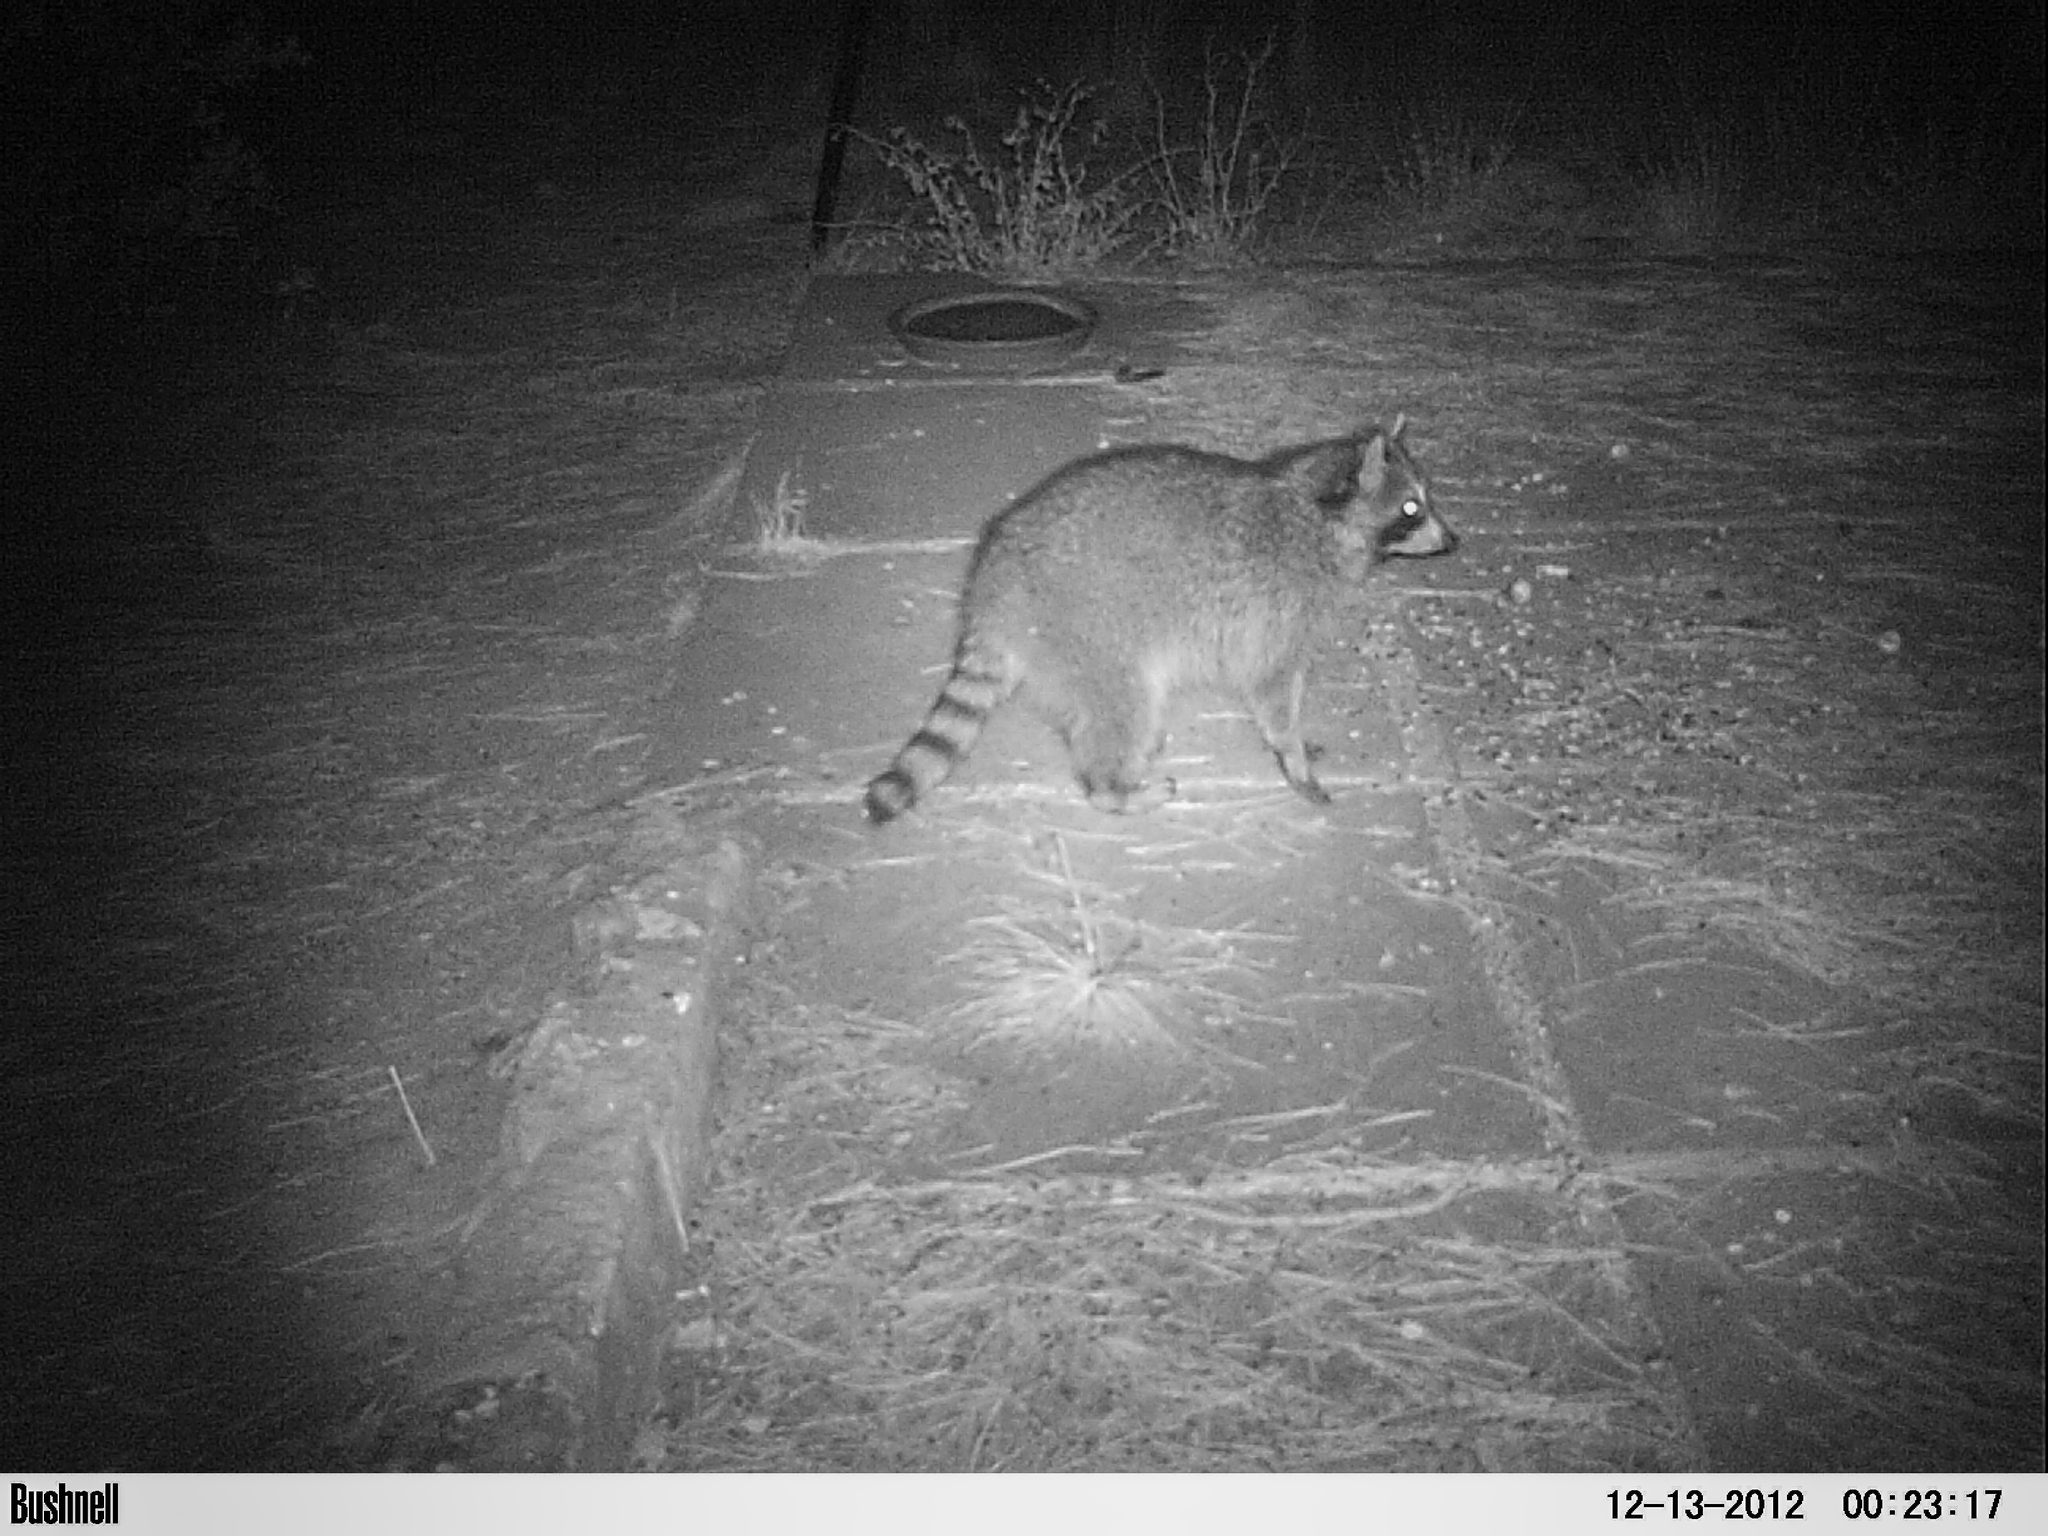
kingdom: Animalia
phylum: Chordata
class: Mammalia
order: Carnivora
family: Procyonidae
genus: Procyon
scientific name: Procyon lotor
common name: Raccoon
